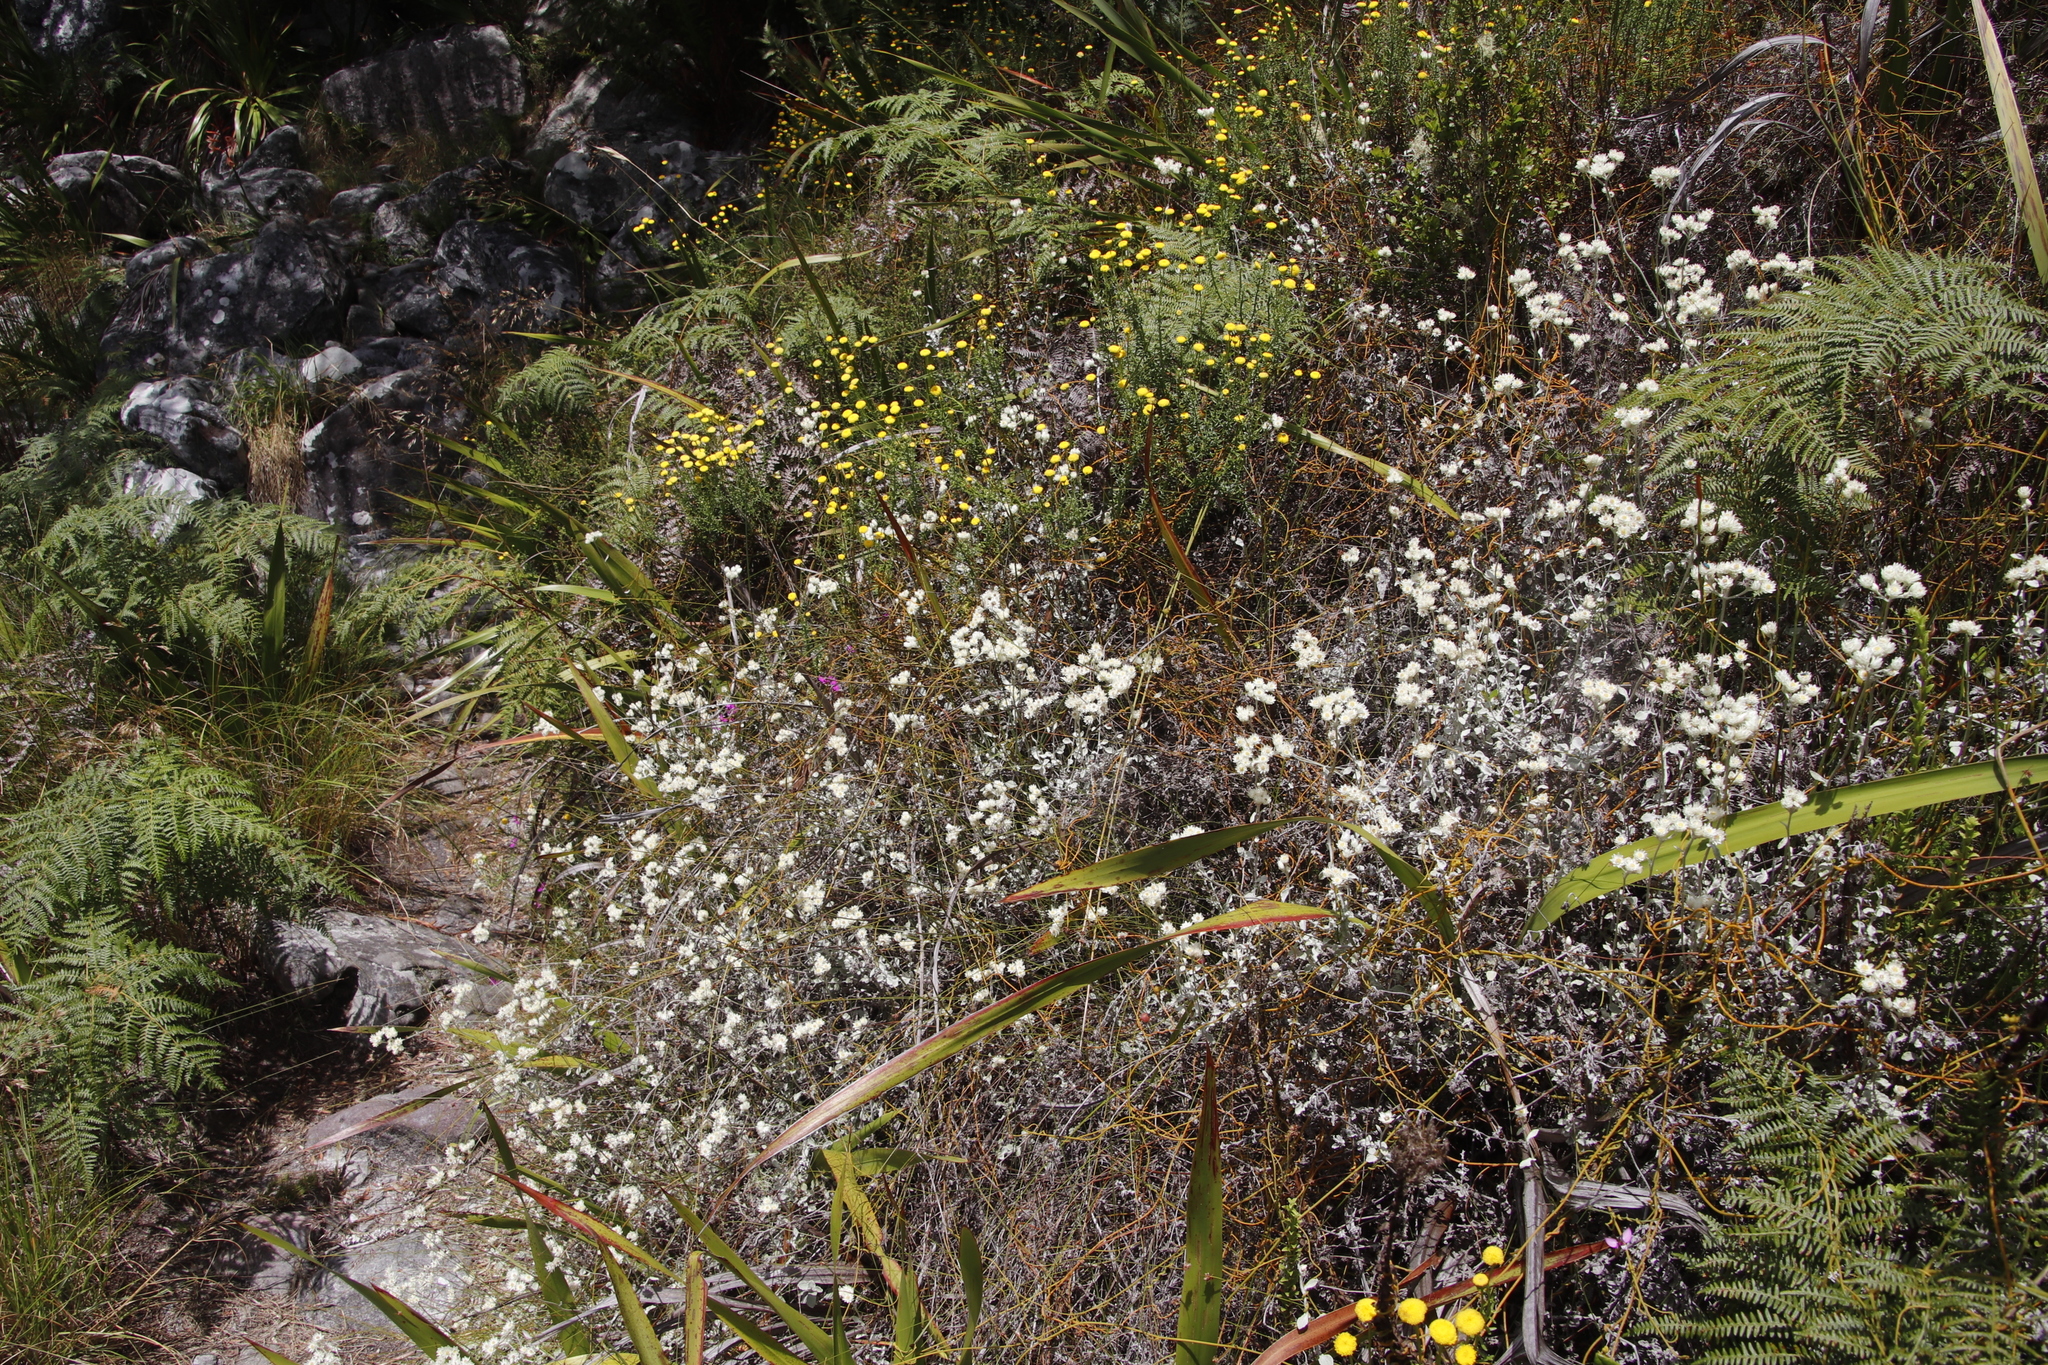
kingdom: Plantae
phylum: Tracheophyta
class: Magnoliopsida
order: Asterales
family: Asteraceae
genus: Chrysocoma
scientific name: Chrysocoma cernua
